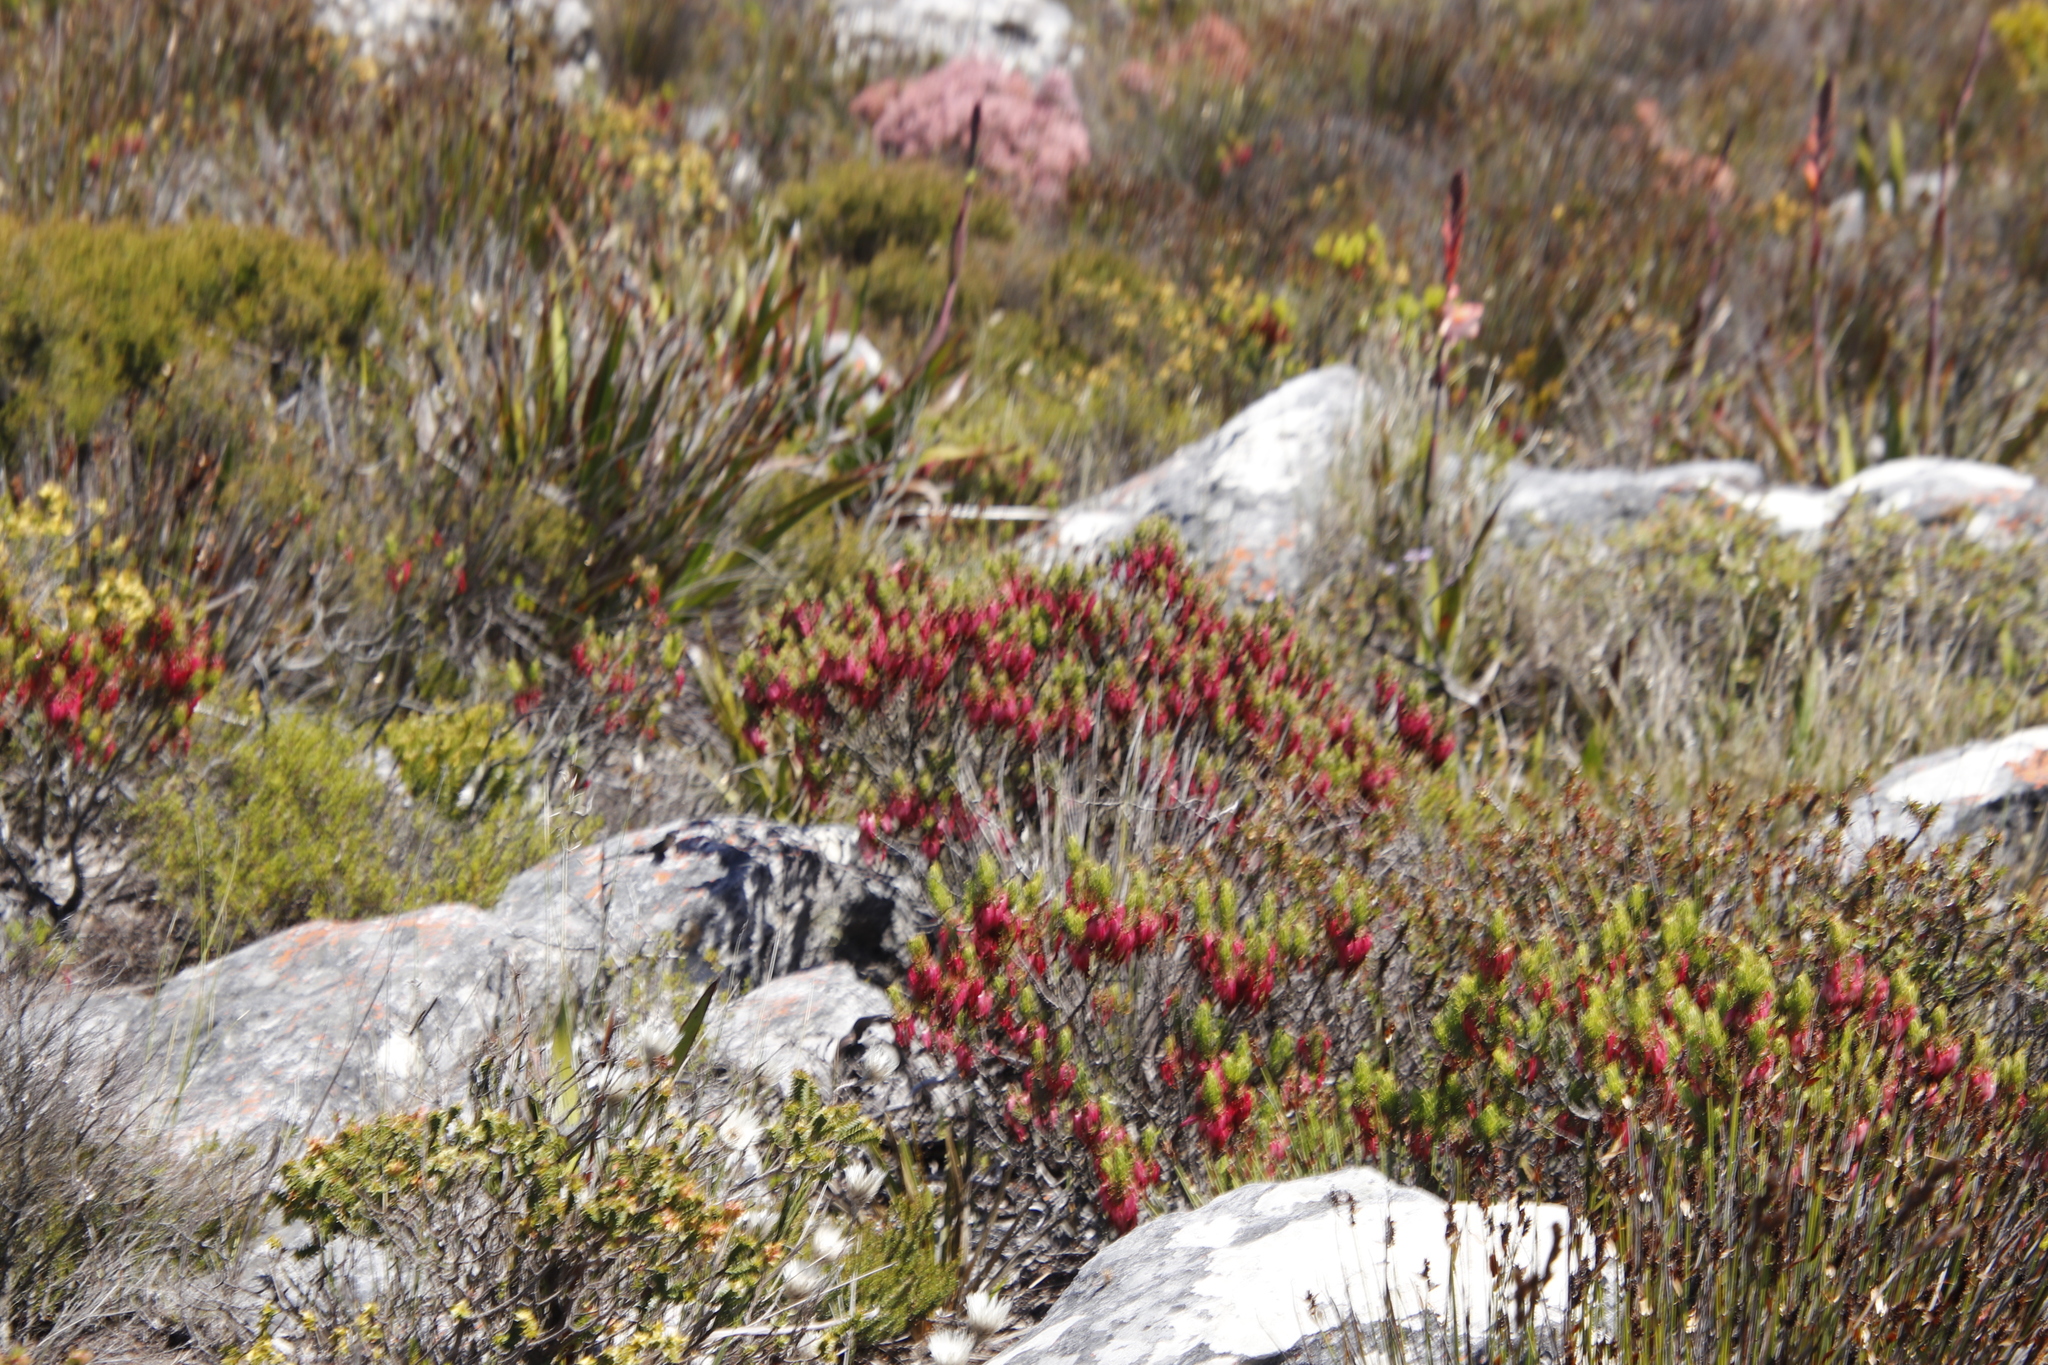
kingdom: Plantae
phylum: Tracheophyta
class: Magnoliopsida
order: Ericales
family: Ericaceae
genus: Erica
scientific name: Erica plukenetii
